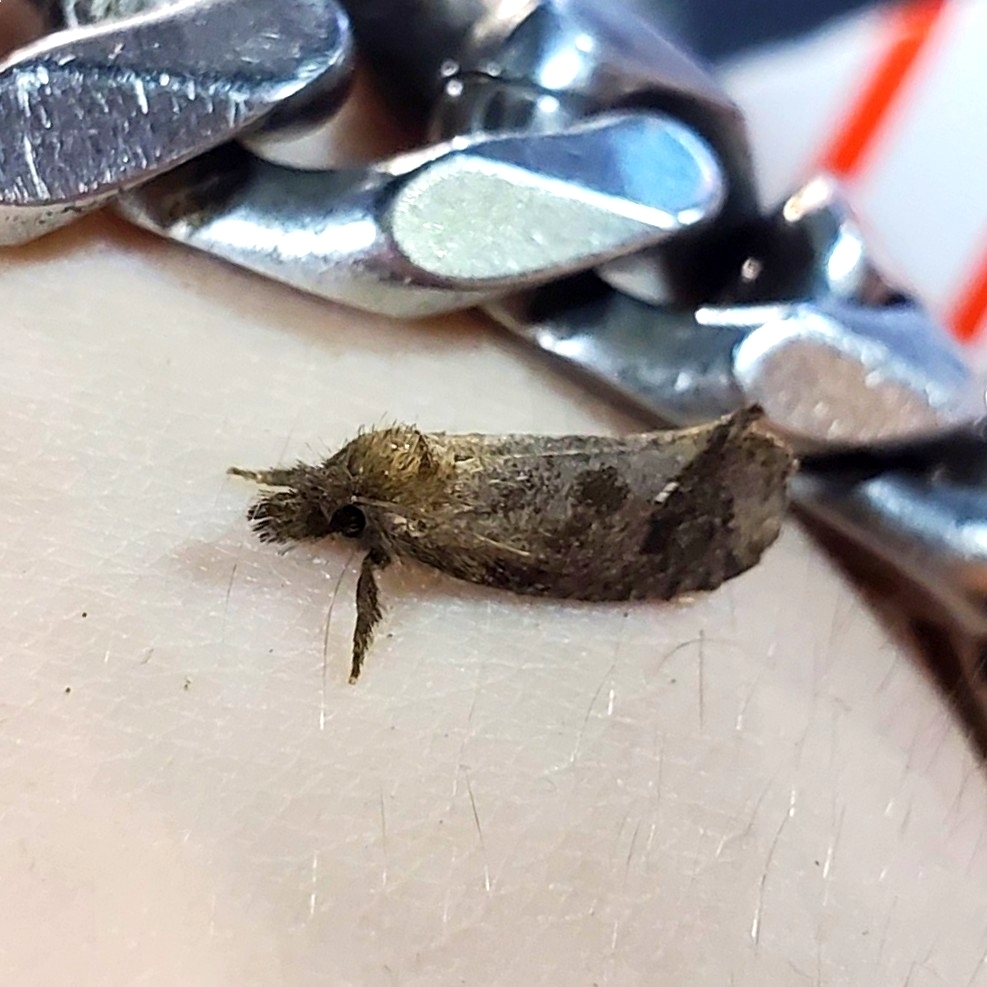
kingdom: Animalia
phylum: Arthropoda
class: Insecta
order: Lepidoptera
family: Tineidae
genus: Acrolophus
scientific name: Acrolophus texanella
